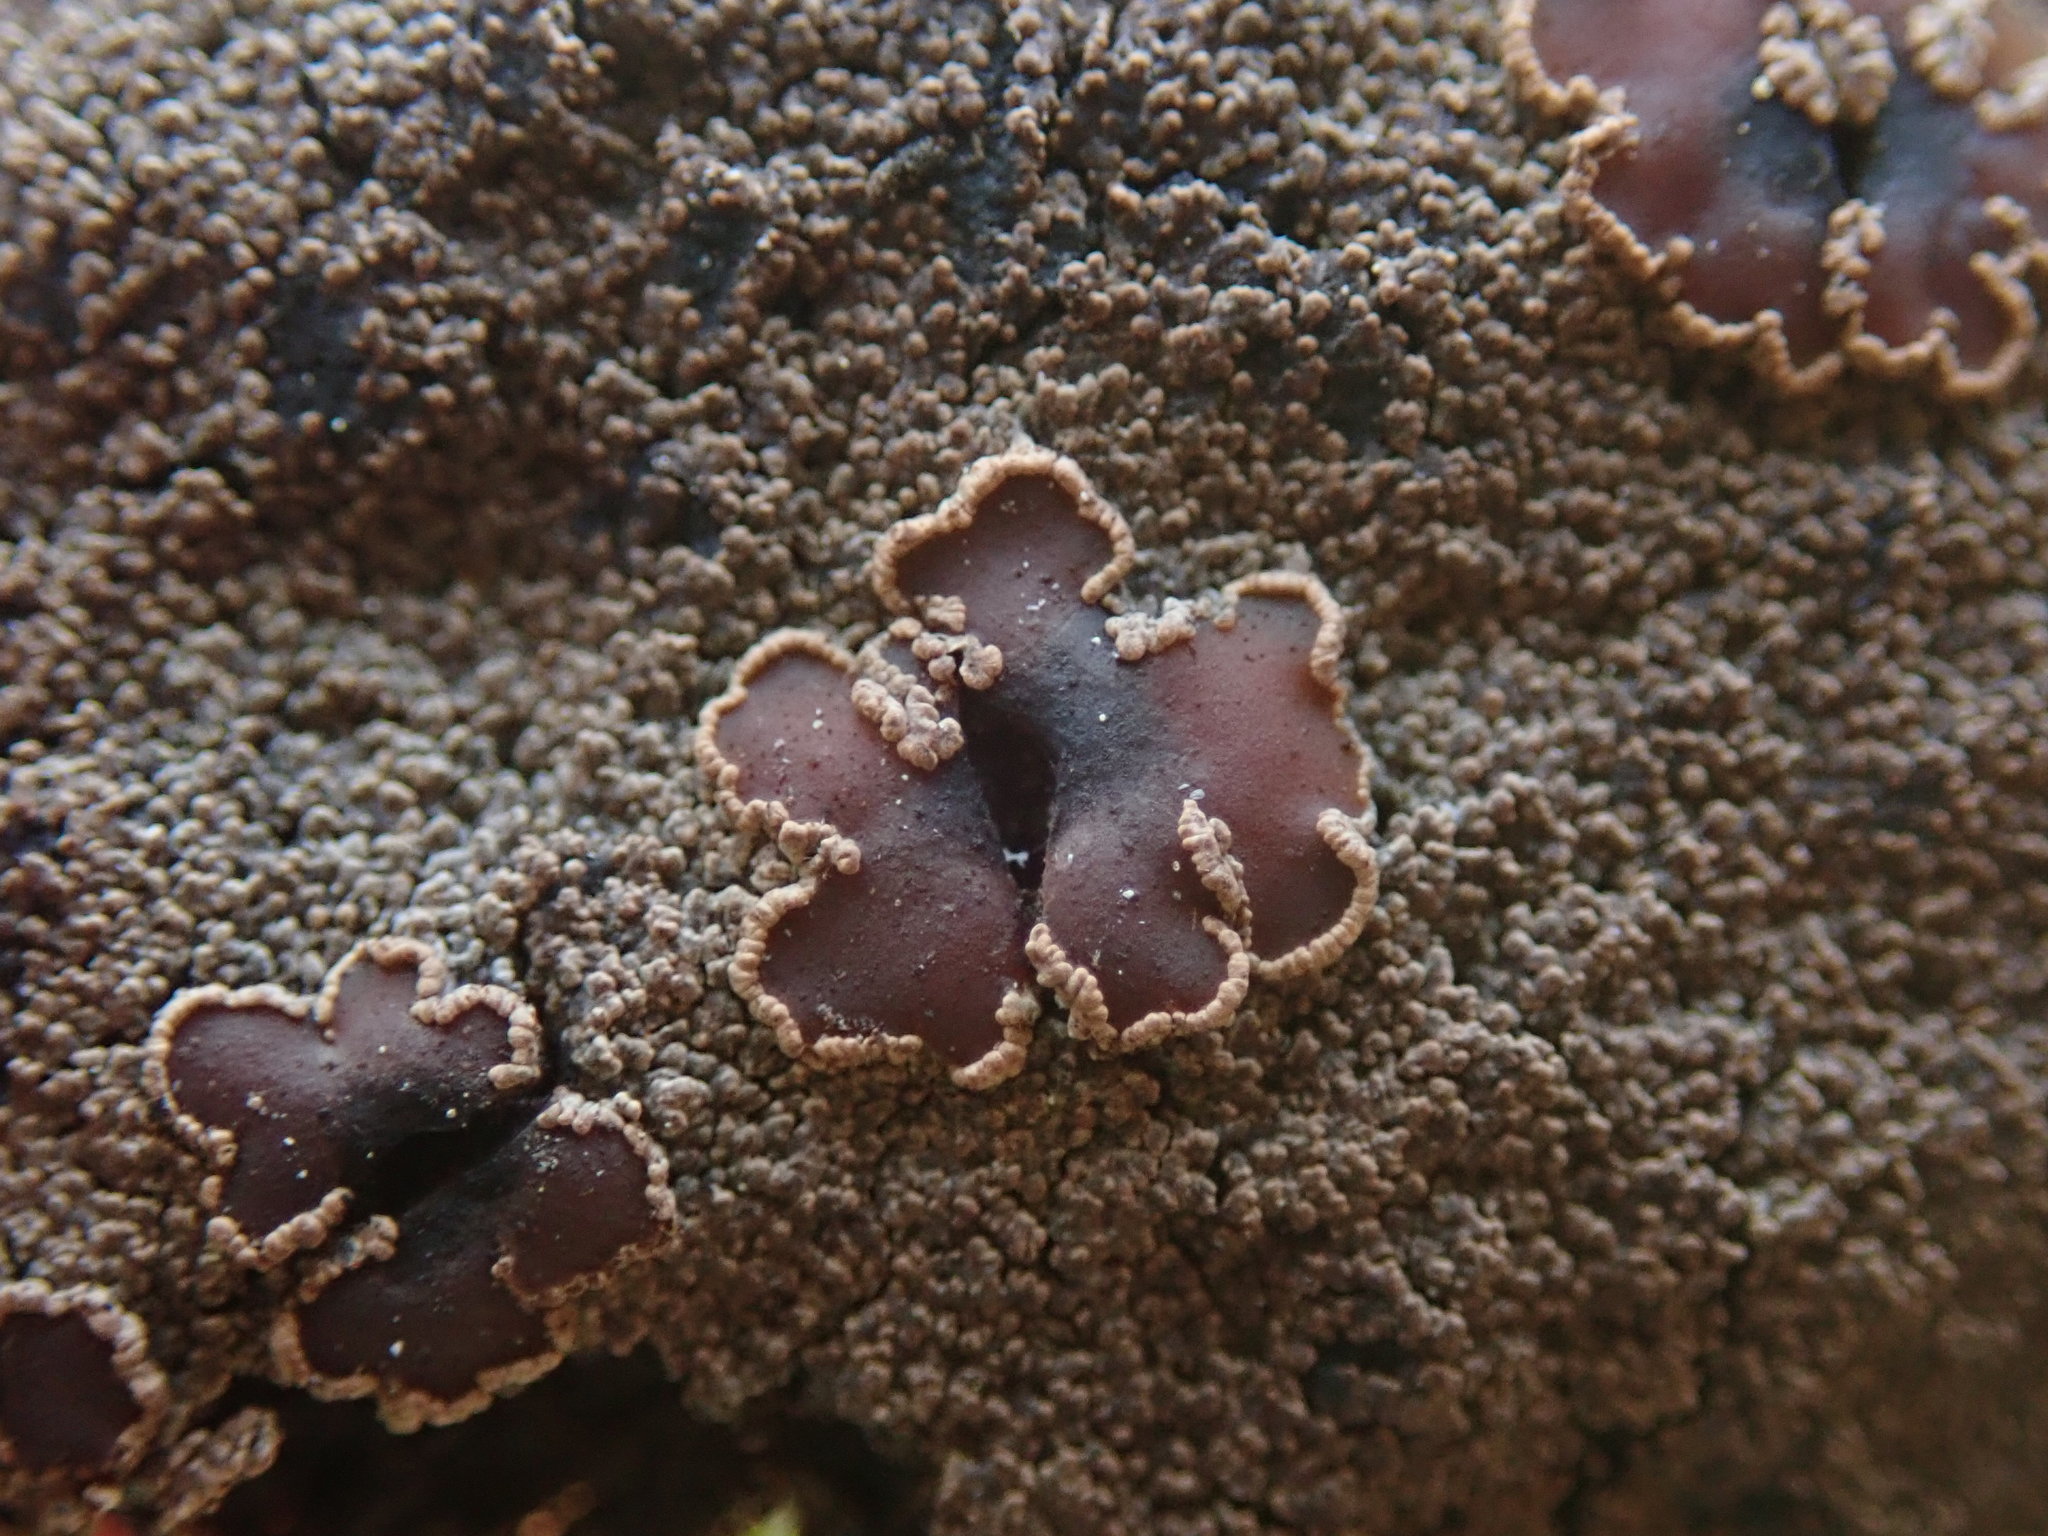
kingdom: Fungi
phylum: Ascomycota
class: Lecanoromycetes
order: Peltigerales
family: Pannariaceae
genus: Protopannaria
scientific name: Protopannaria pezizoides
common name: Brown-gray m oss-shingle
